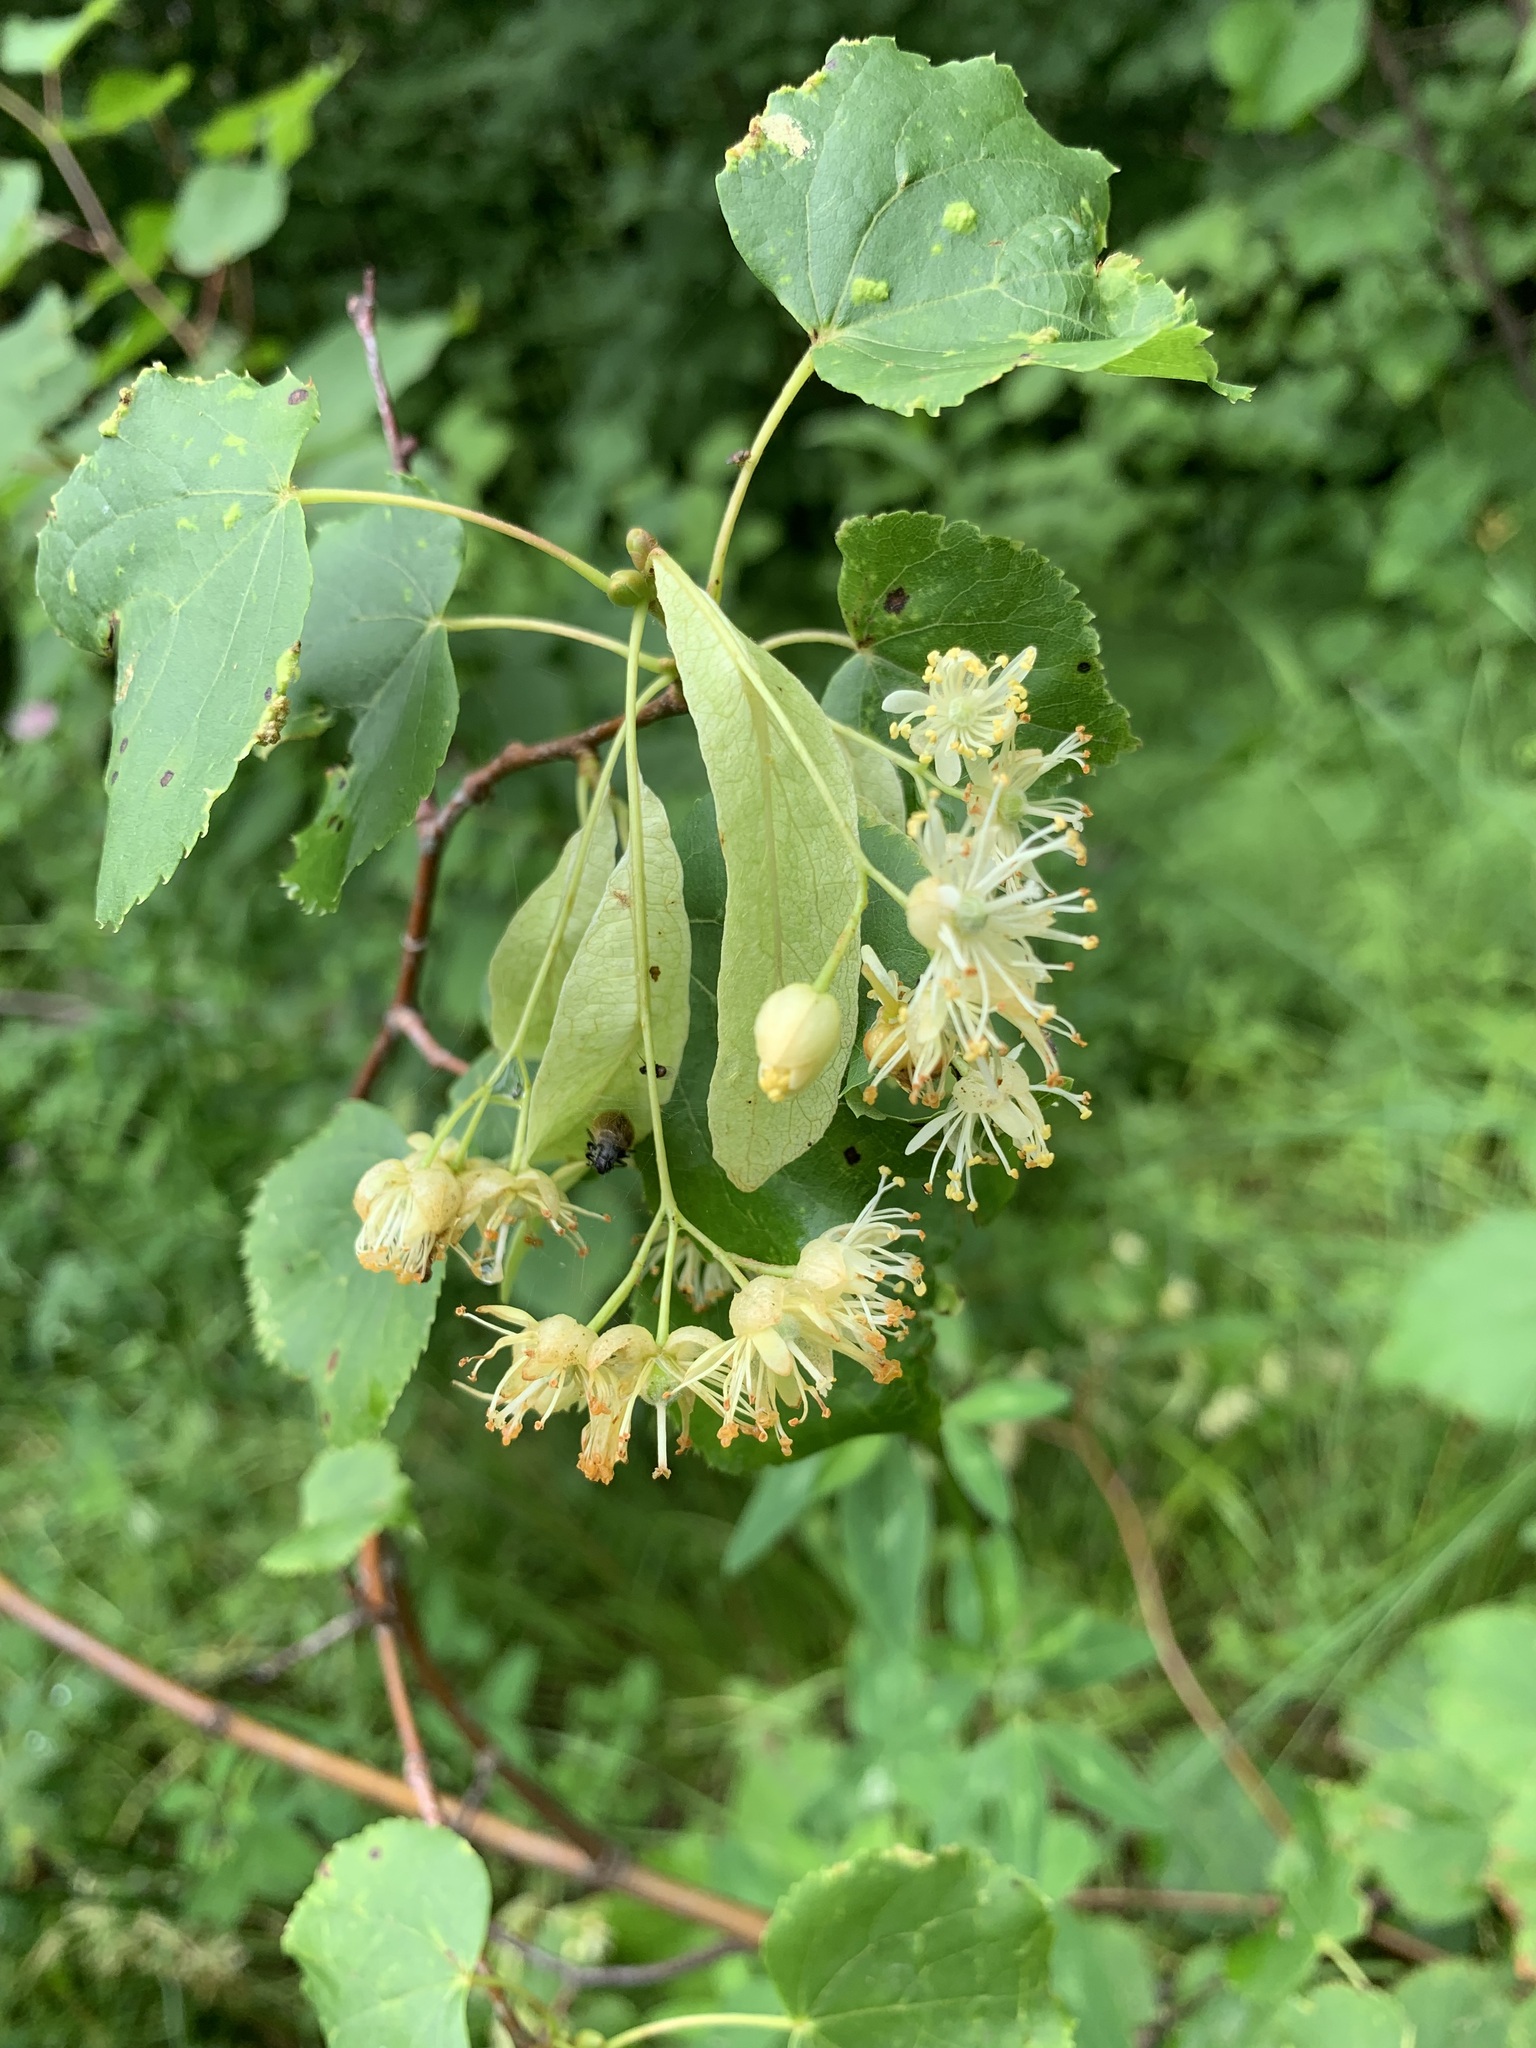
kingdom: Plantae
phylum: Tracheophyta
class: Magnoliopsida
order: Malvales
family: Malvaceae
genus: Tilia
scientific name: Tilia cordata
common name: Small-leaved lime
